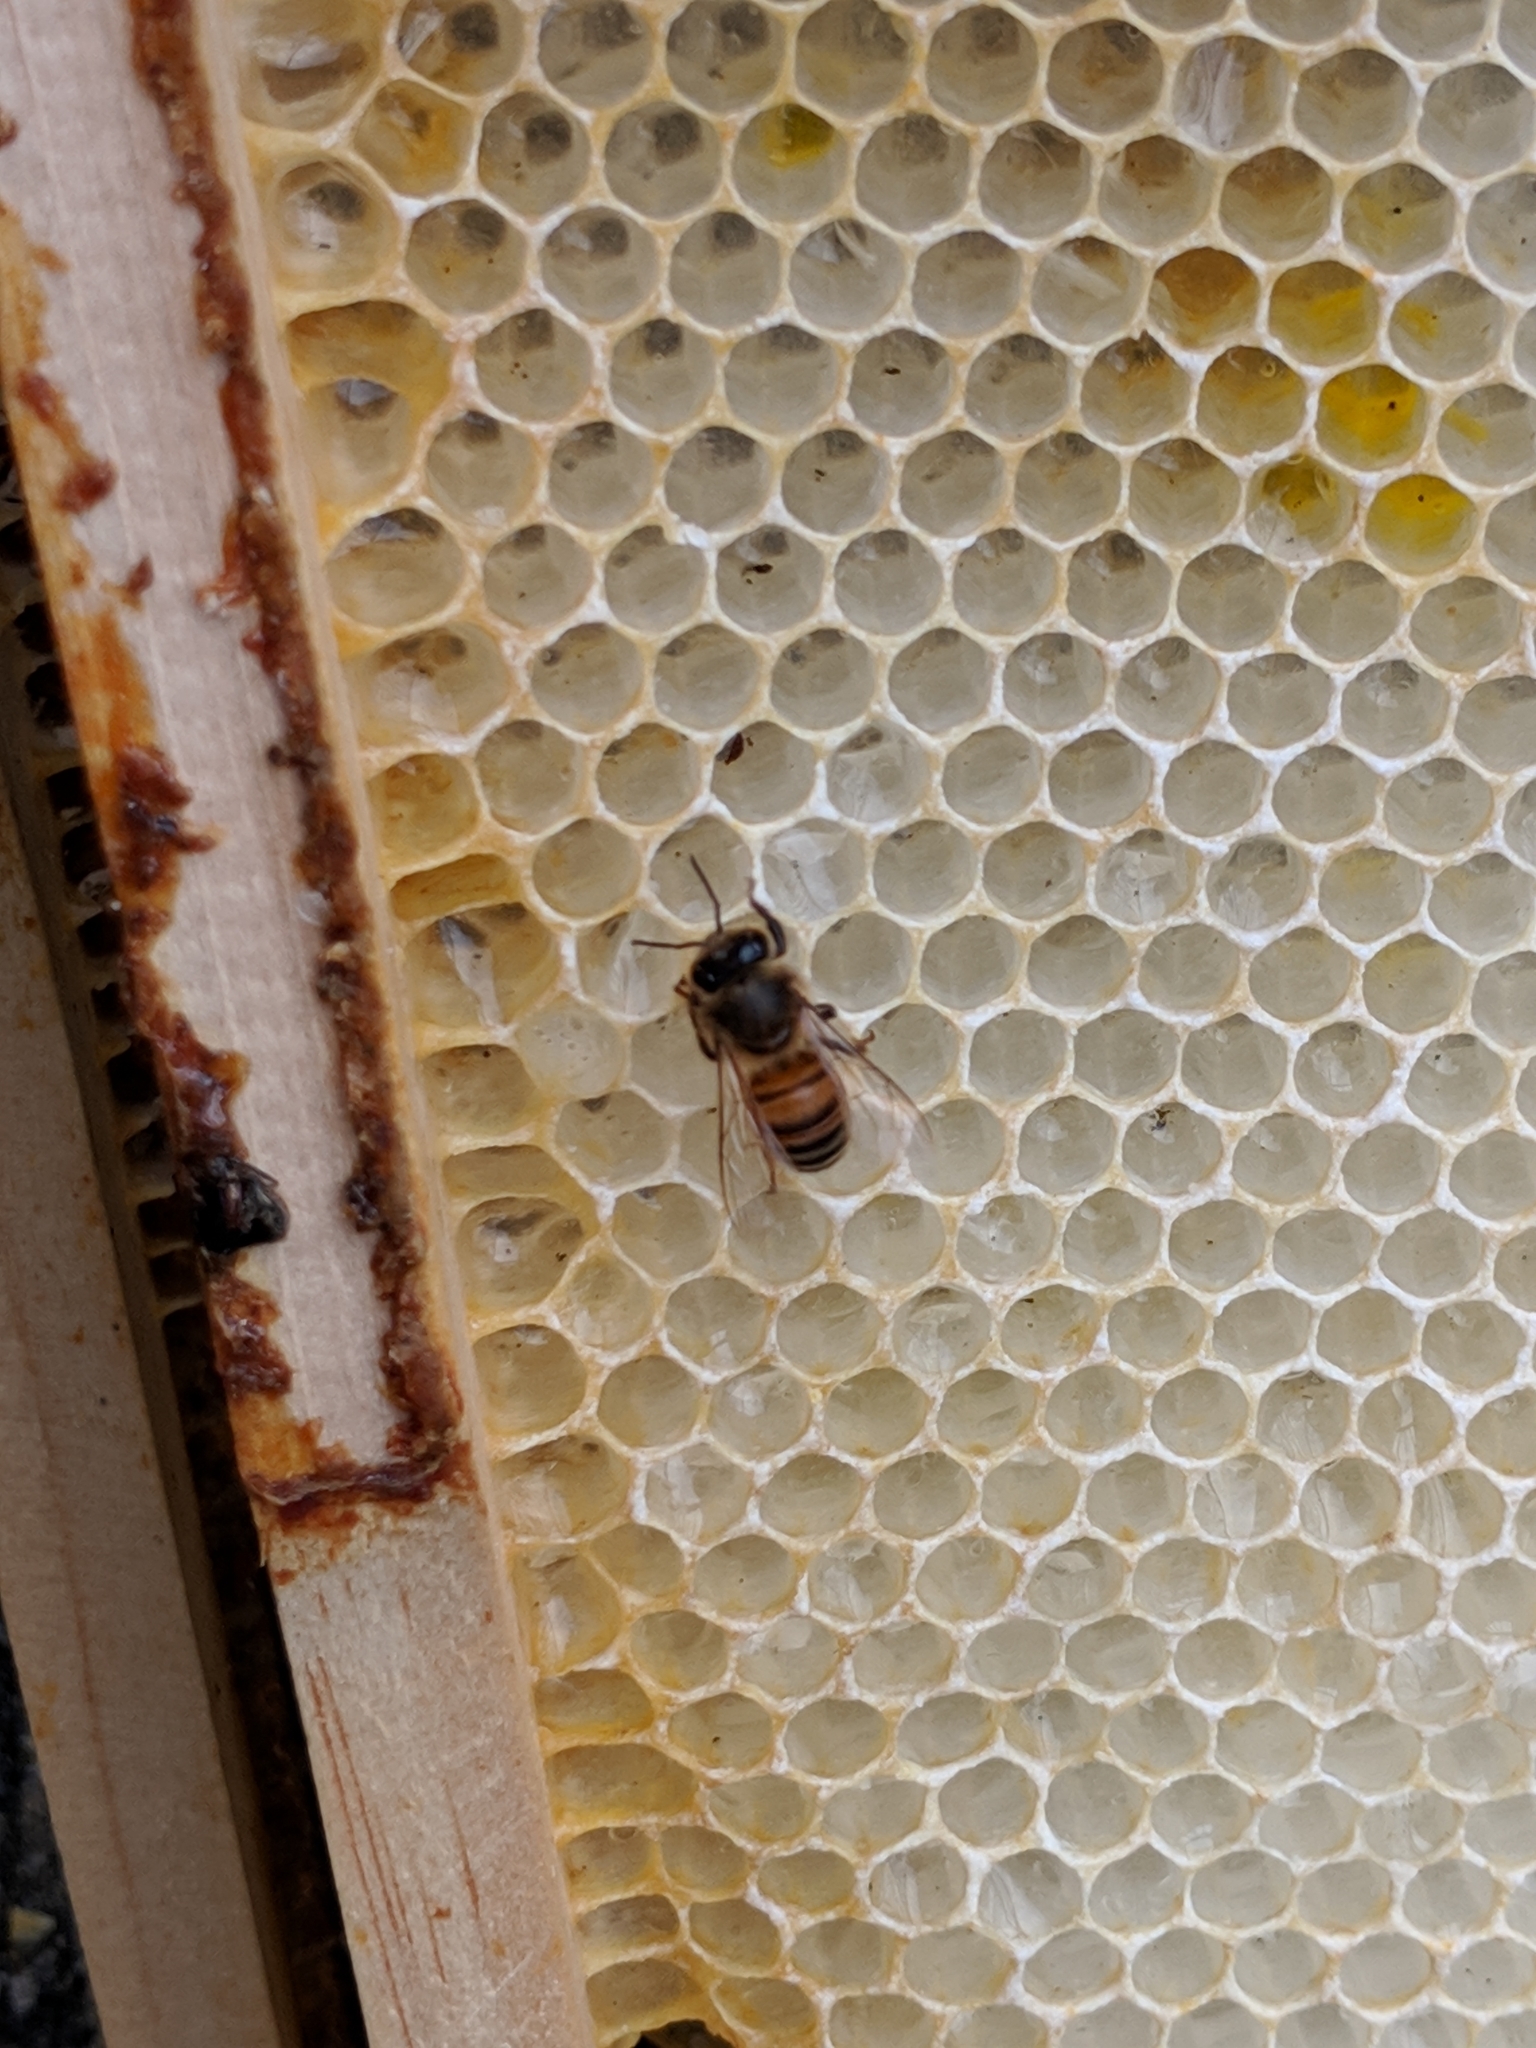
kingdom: Animalia
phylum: Arthropoda
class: Insecta
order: Hymenoptera
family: Apidae
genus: Apis
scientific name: Apis mellifera
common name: Honey bee
